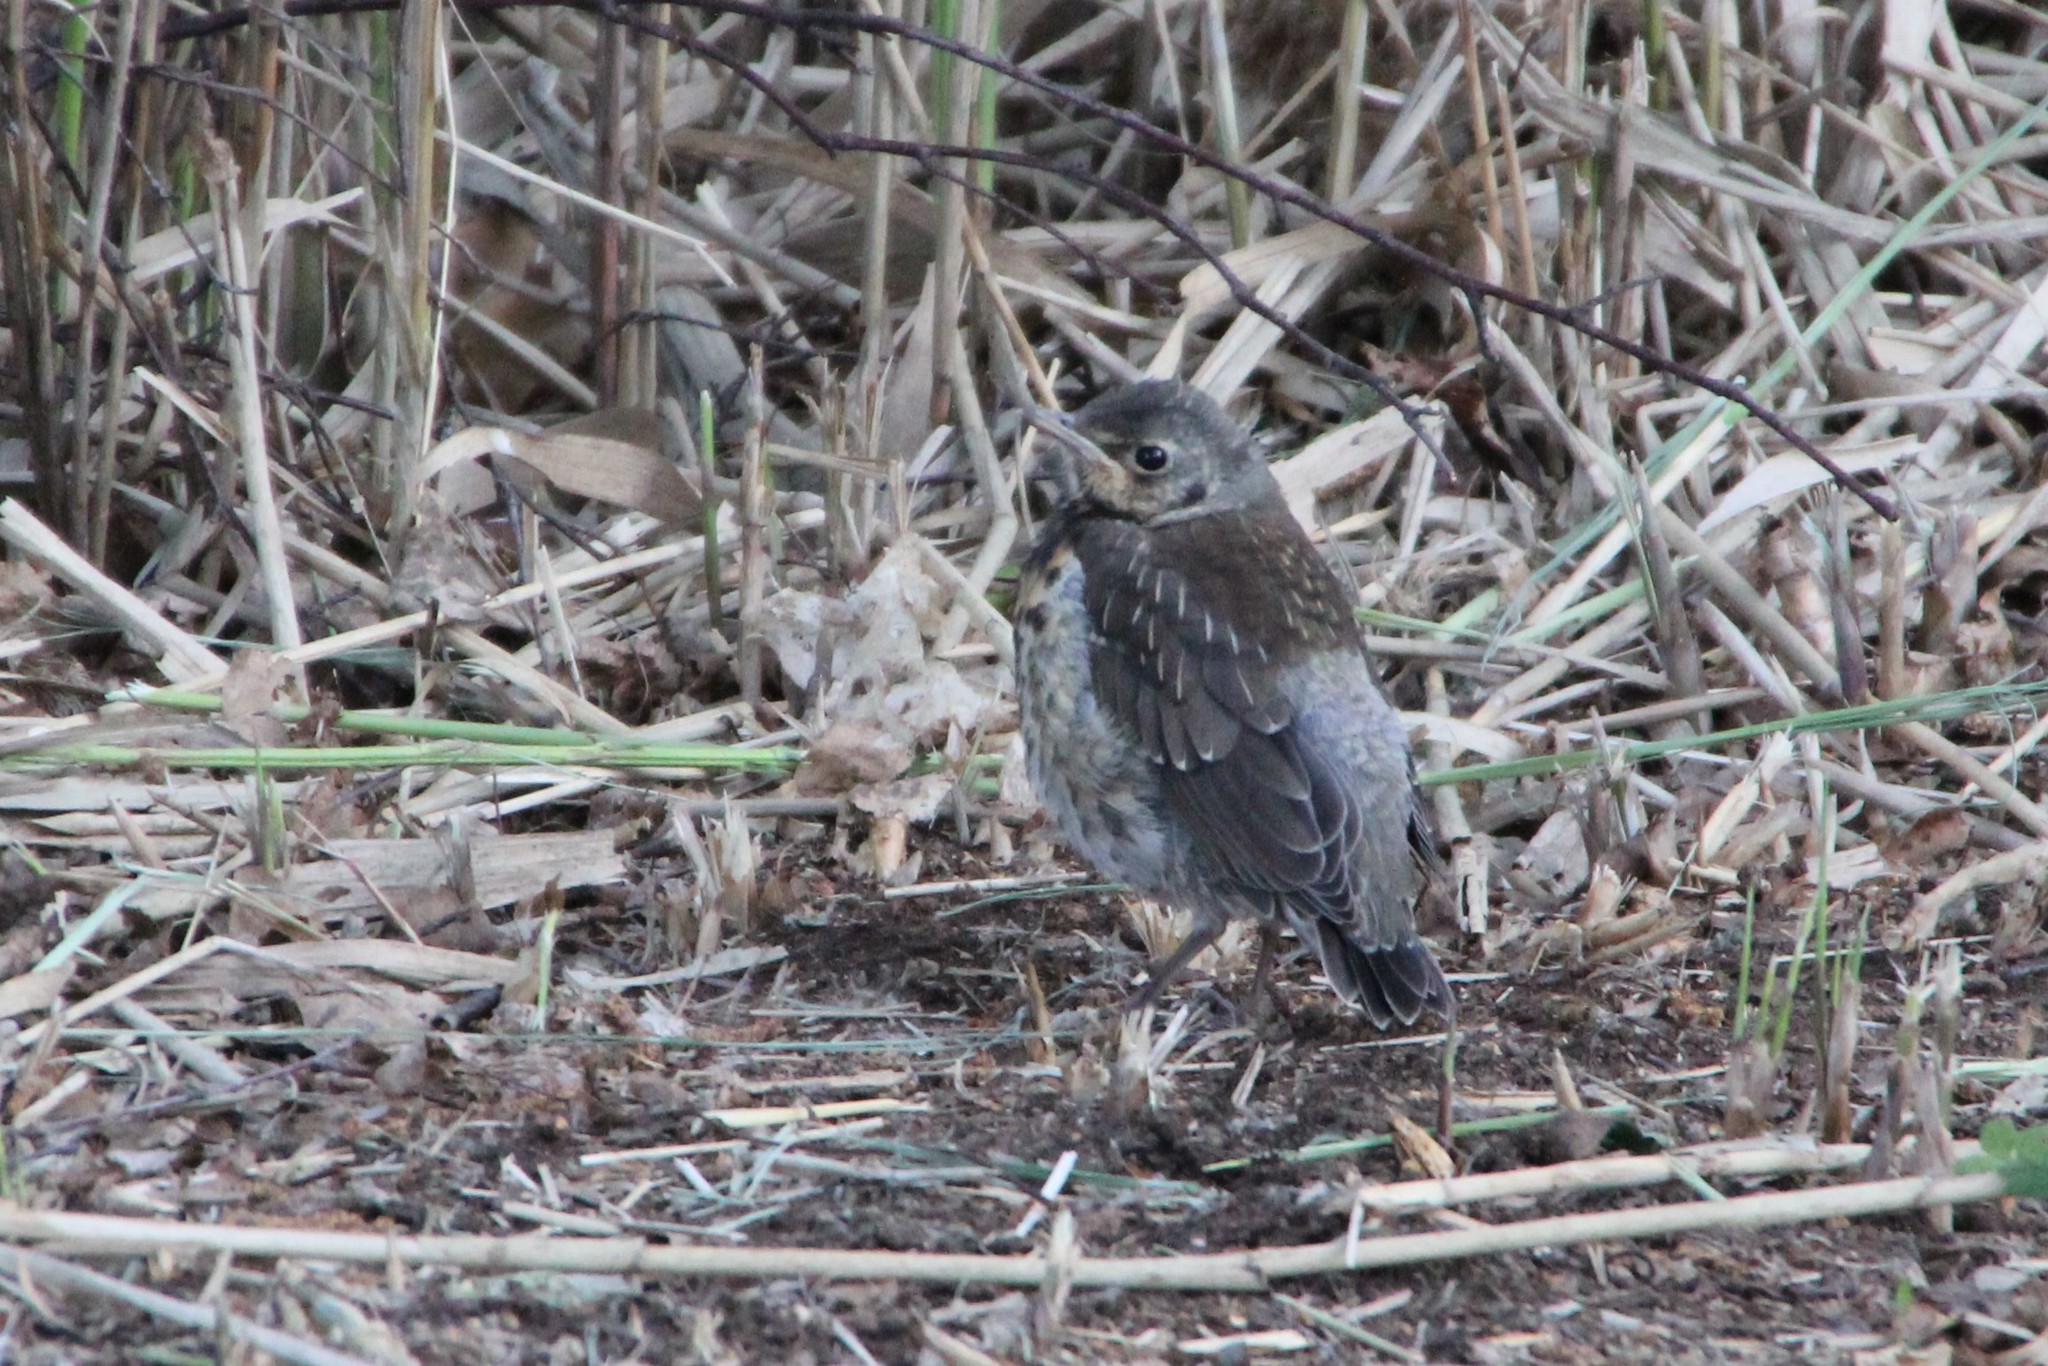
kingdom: Animalia
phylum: Chordata
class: Aves
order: Passeriformes
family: Turdidae
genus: Turdus
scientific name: Turdus pilaris
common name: Fieldfare
